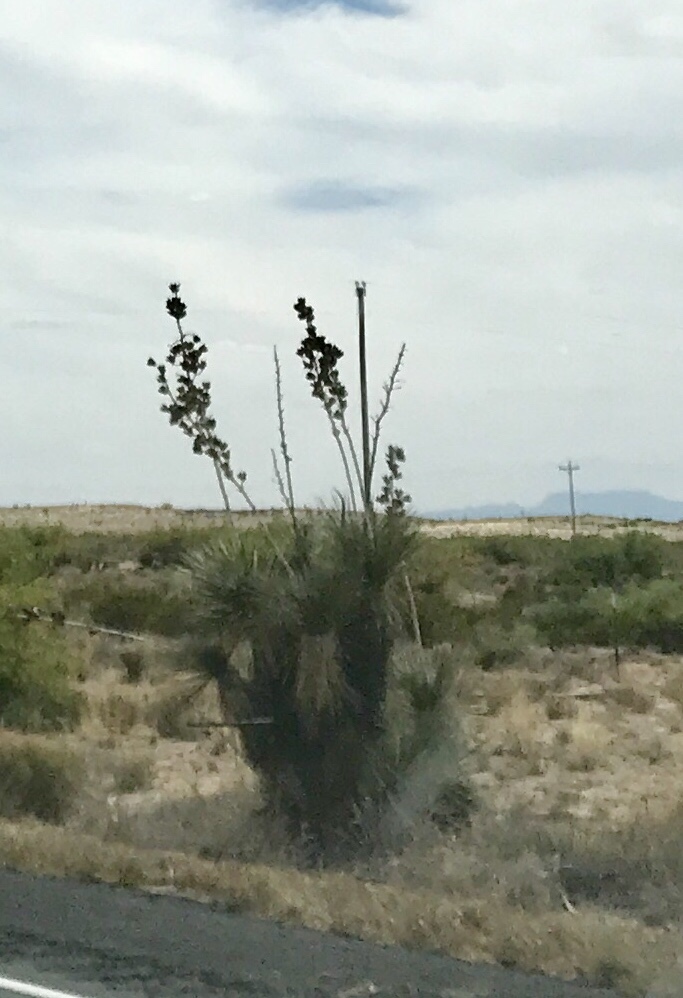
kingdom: Plantae
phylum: Tracheophyta
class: Liliopsida
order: Asparagales
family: Asparagaceae
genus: Yucca
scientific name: Yucca elata
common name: Palmella
